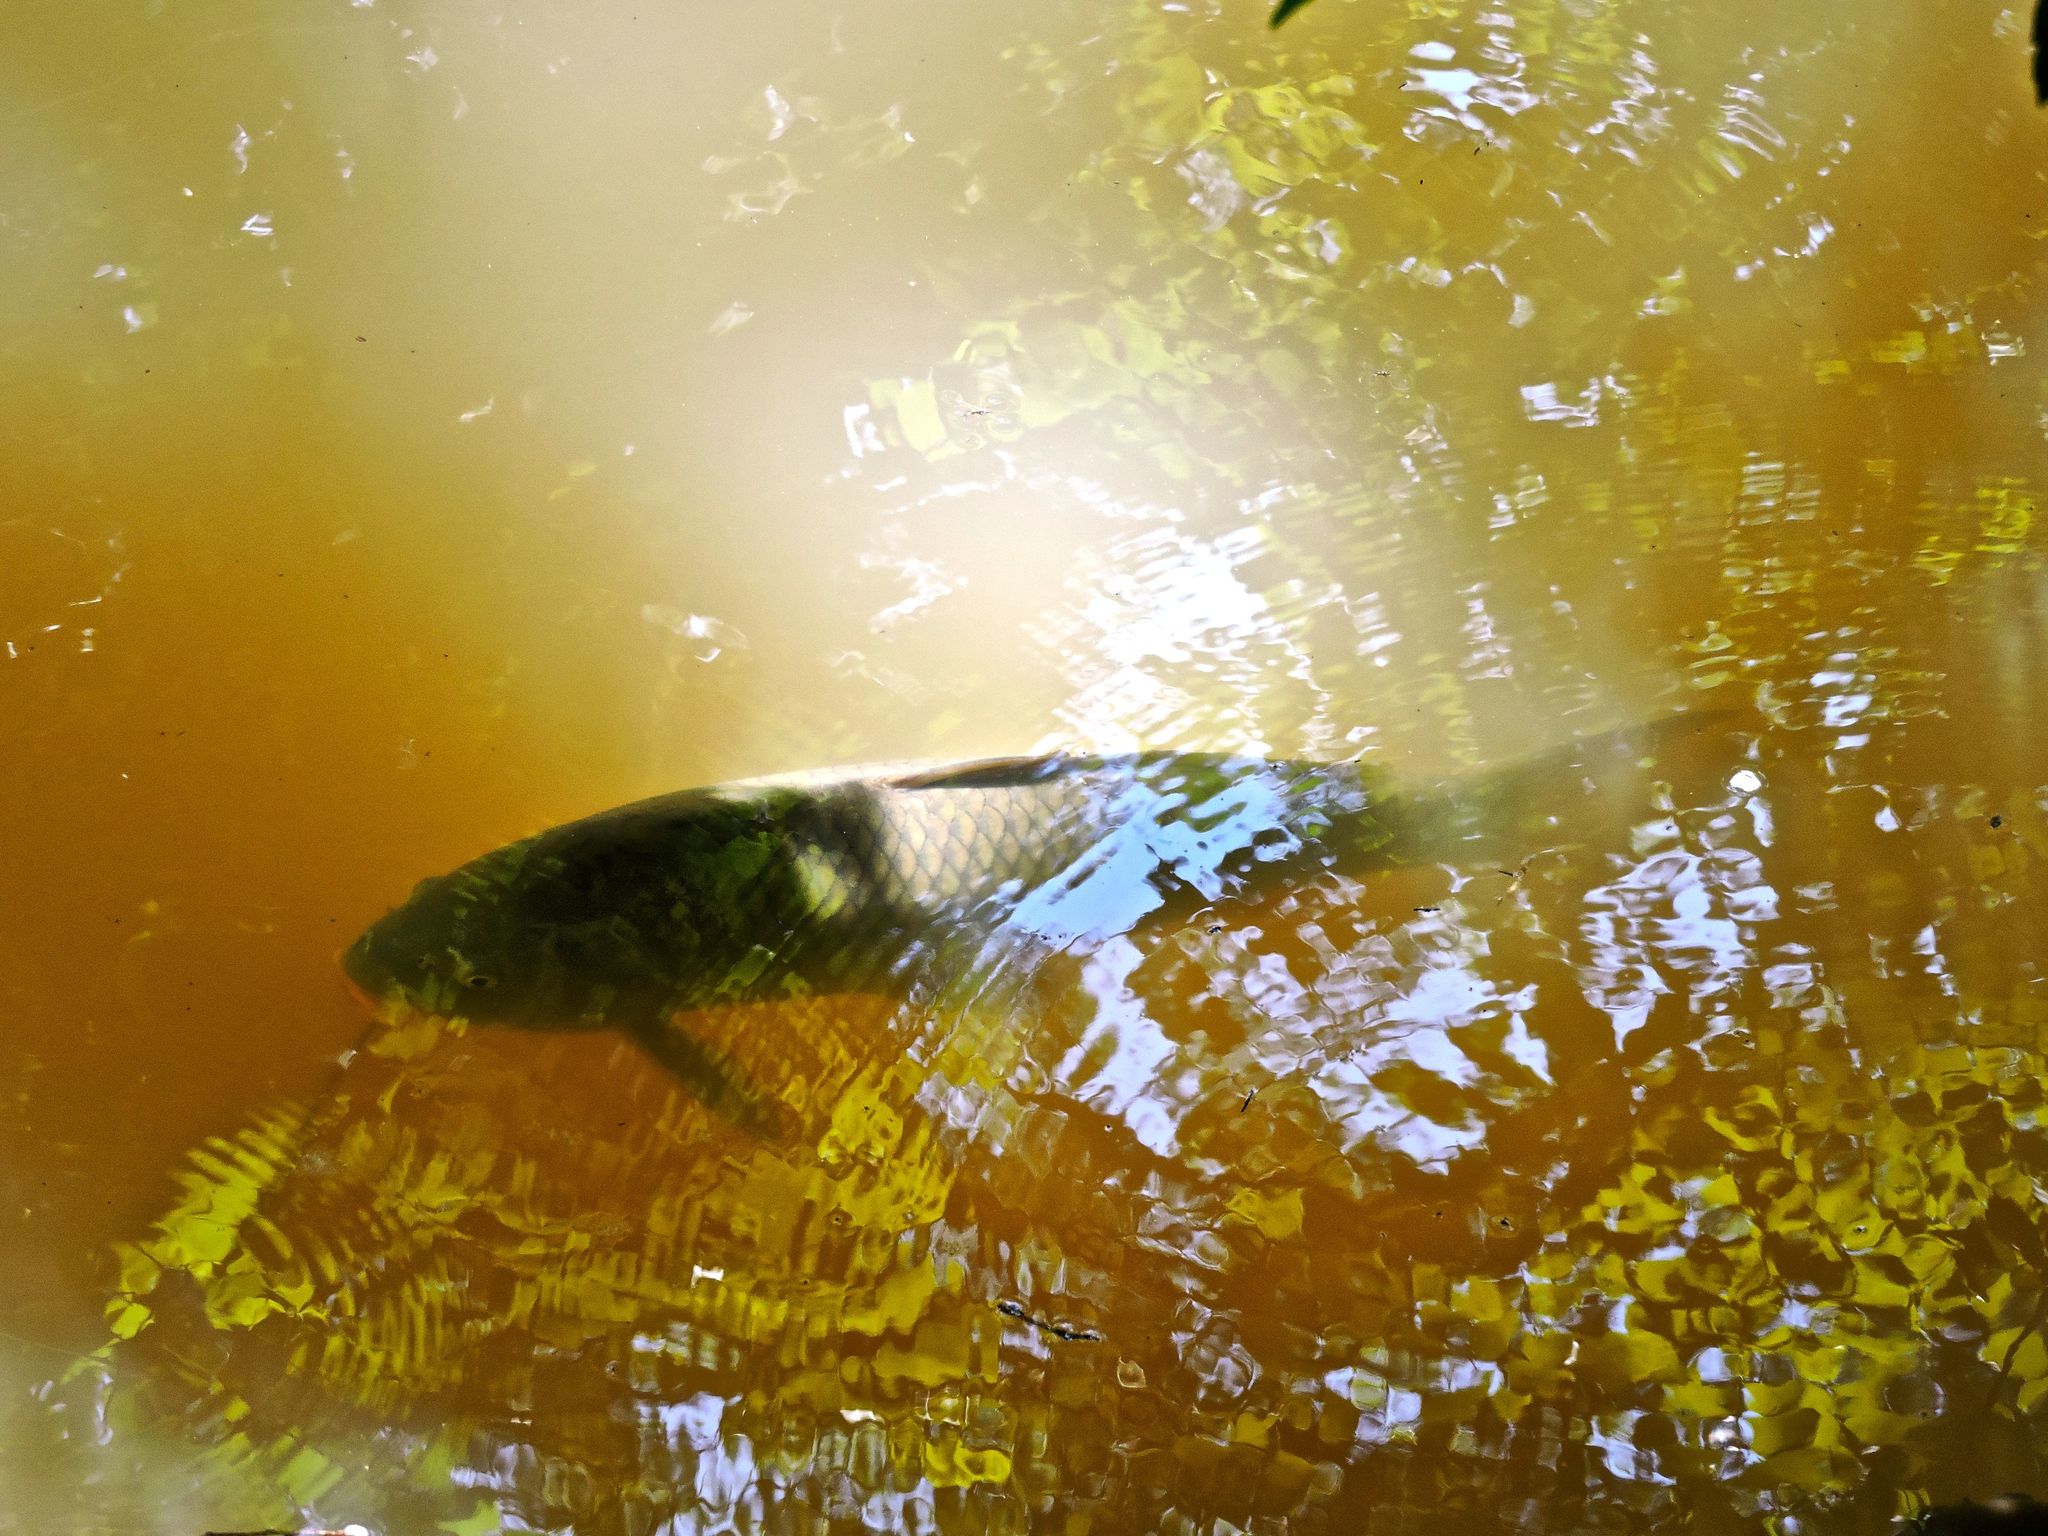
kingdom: Animalia
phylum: Chordata
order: Cypriniformes
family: Cyprinidae
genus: Cyprinus
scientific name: Cyprinus carpio
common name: Common carp
